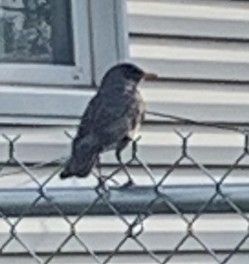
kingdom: Animalia
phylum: Chordata
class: Aves
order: Passeriformes
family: Turdidae
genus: Turdus
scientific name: Turdus migratorius
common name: American robin
